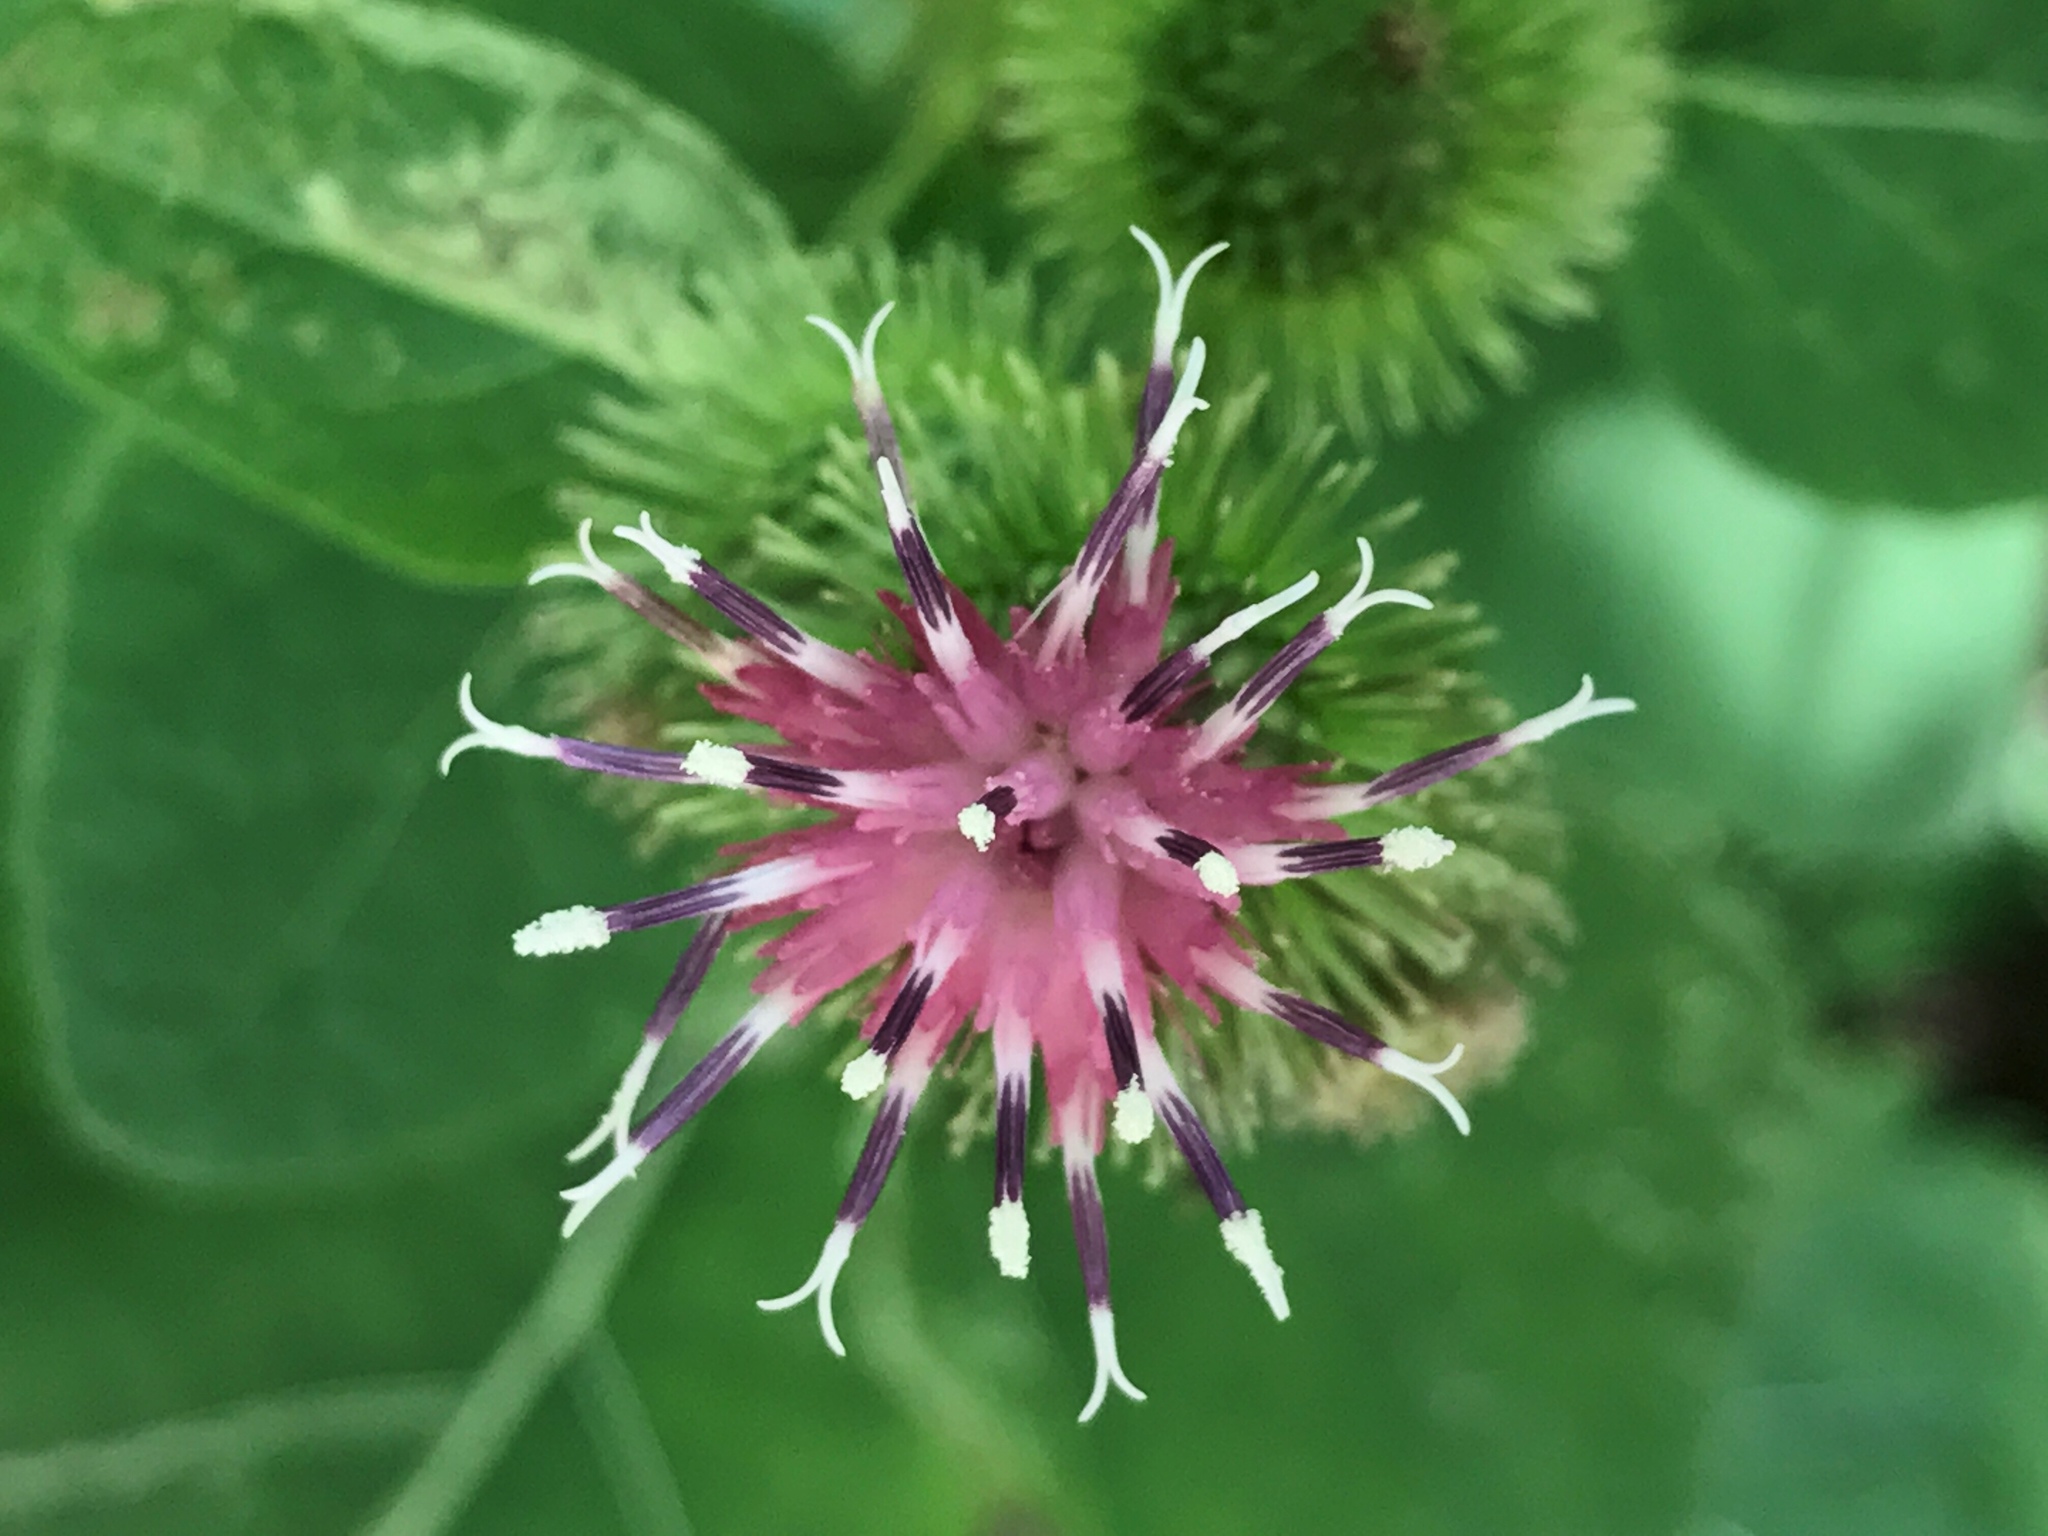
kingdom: Plantae
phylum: Tracheophyta
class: Magnoliopsida
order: Asterales
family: Asteraceae
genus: Arctium
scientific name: Arctium minus
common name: Lesser burdock
